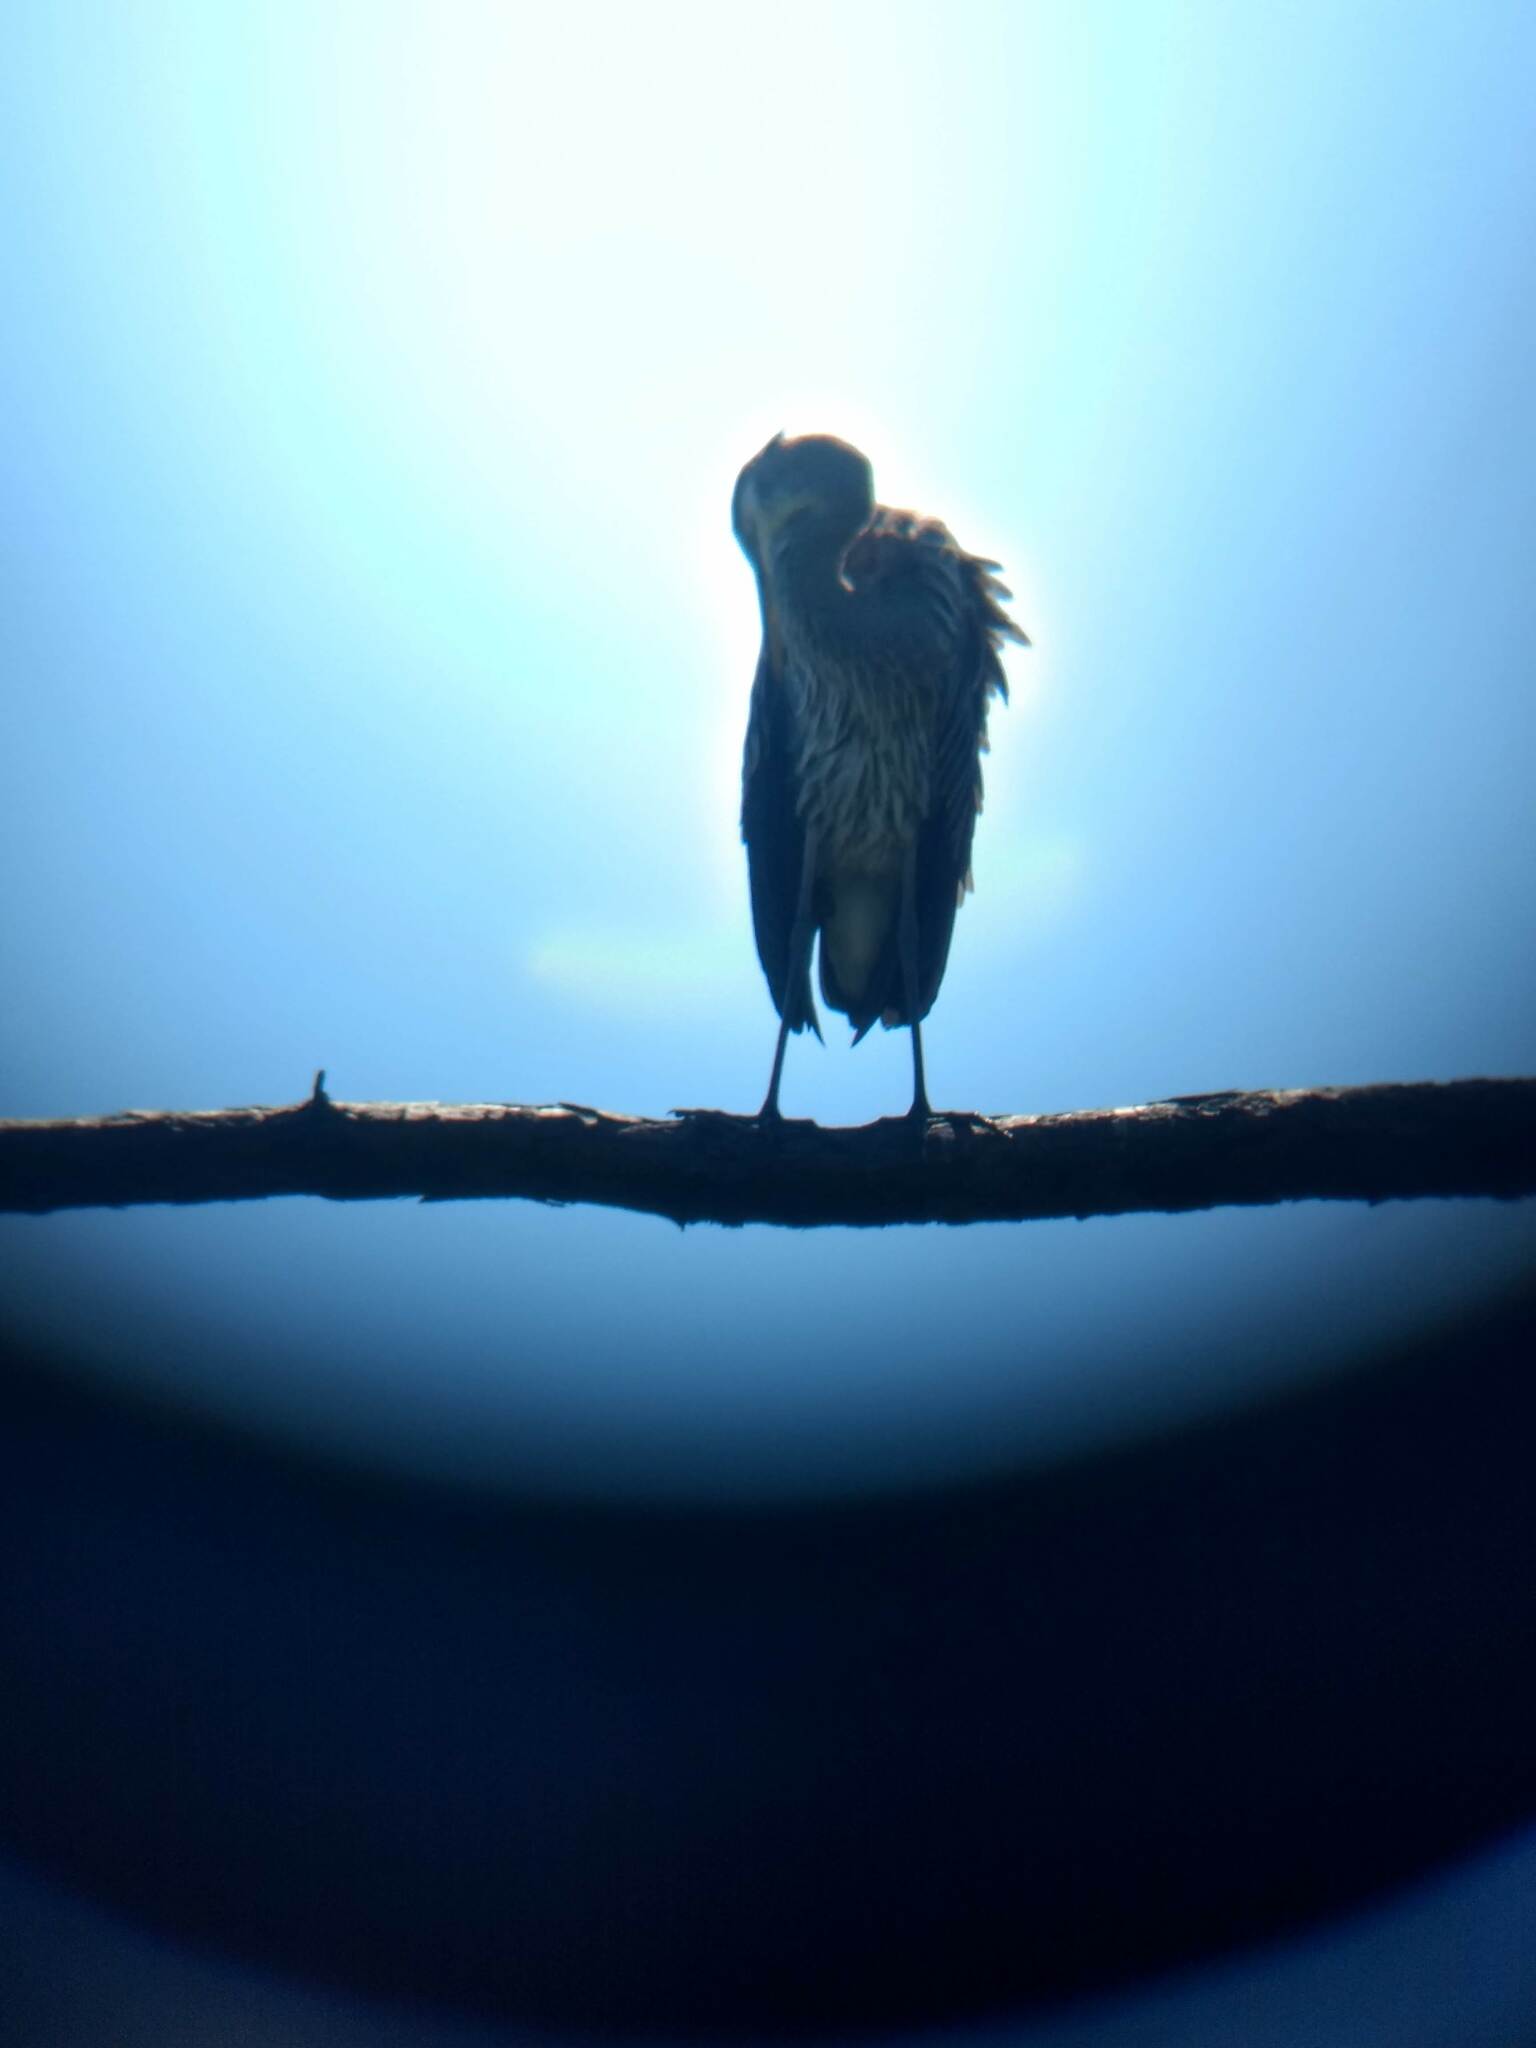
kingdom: Animalia
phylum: Chordata
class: Aves
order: Pelecaniformes
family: Ardeidae
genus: Ardea
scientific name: Ardea herodias
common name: Great blue heron
